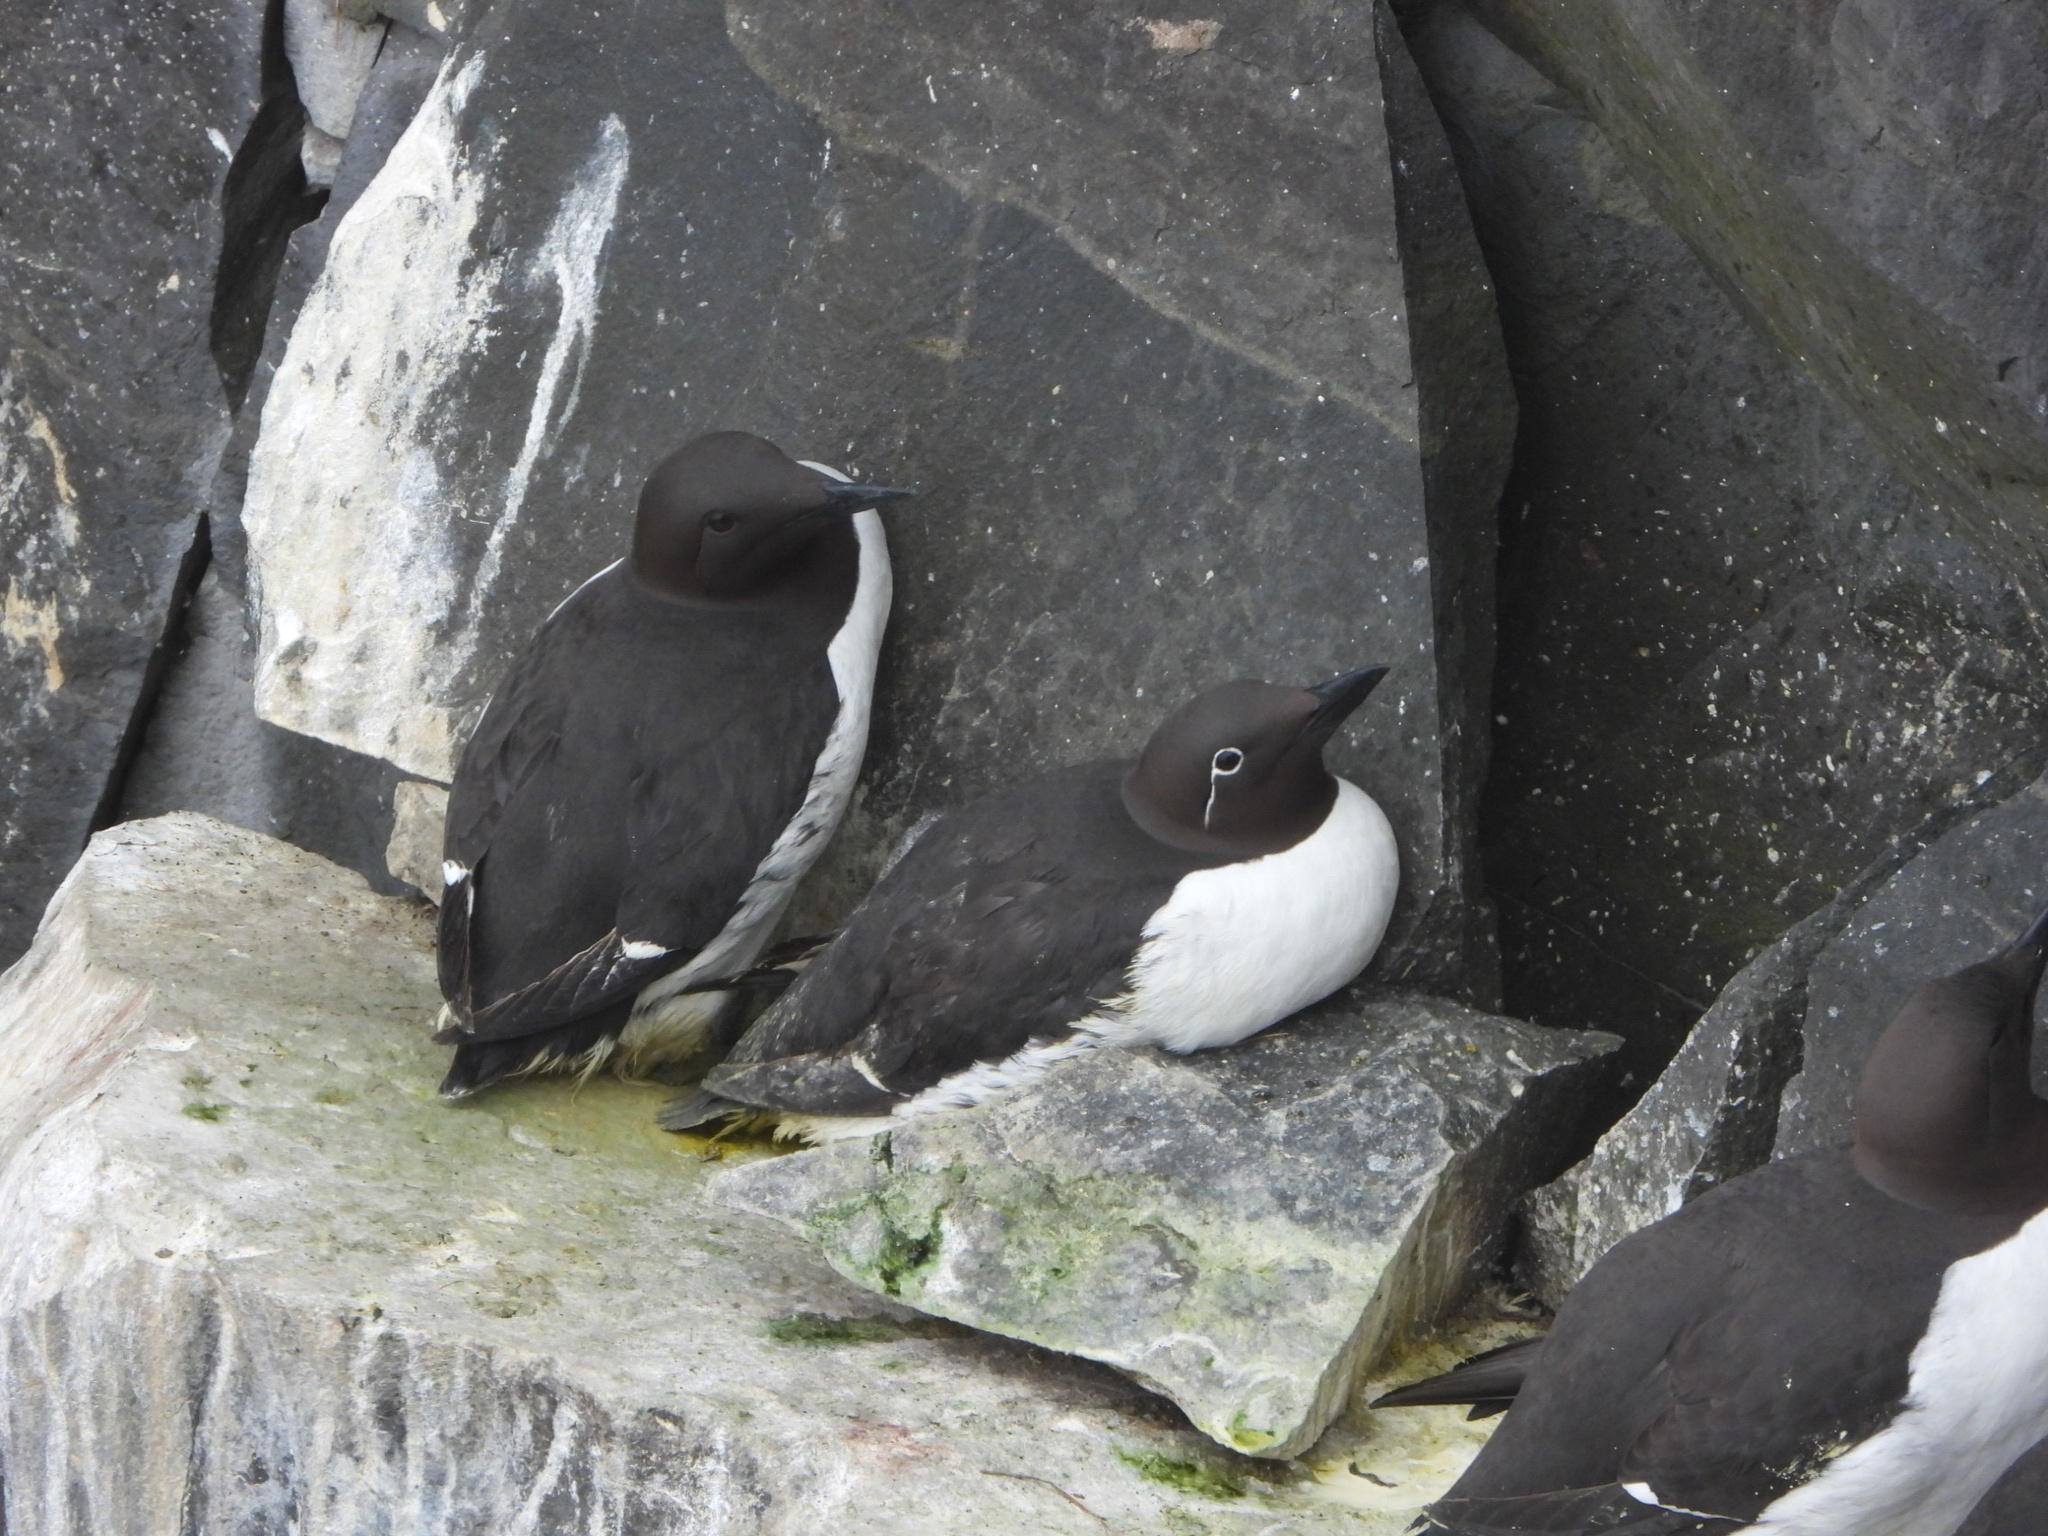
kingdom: Animalia
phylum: Chordata
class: Aves
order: Charadriiformes
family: Alcidae
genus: Uria
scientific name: Uria aalge
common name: Common murre
